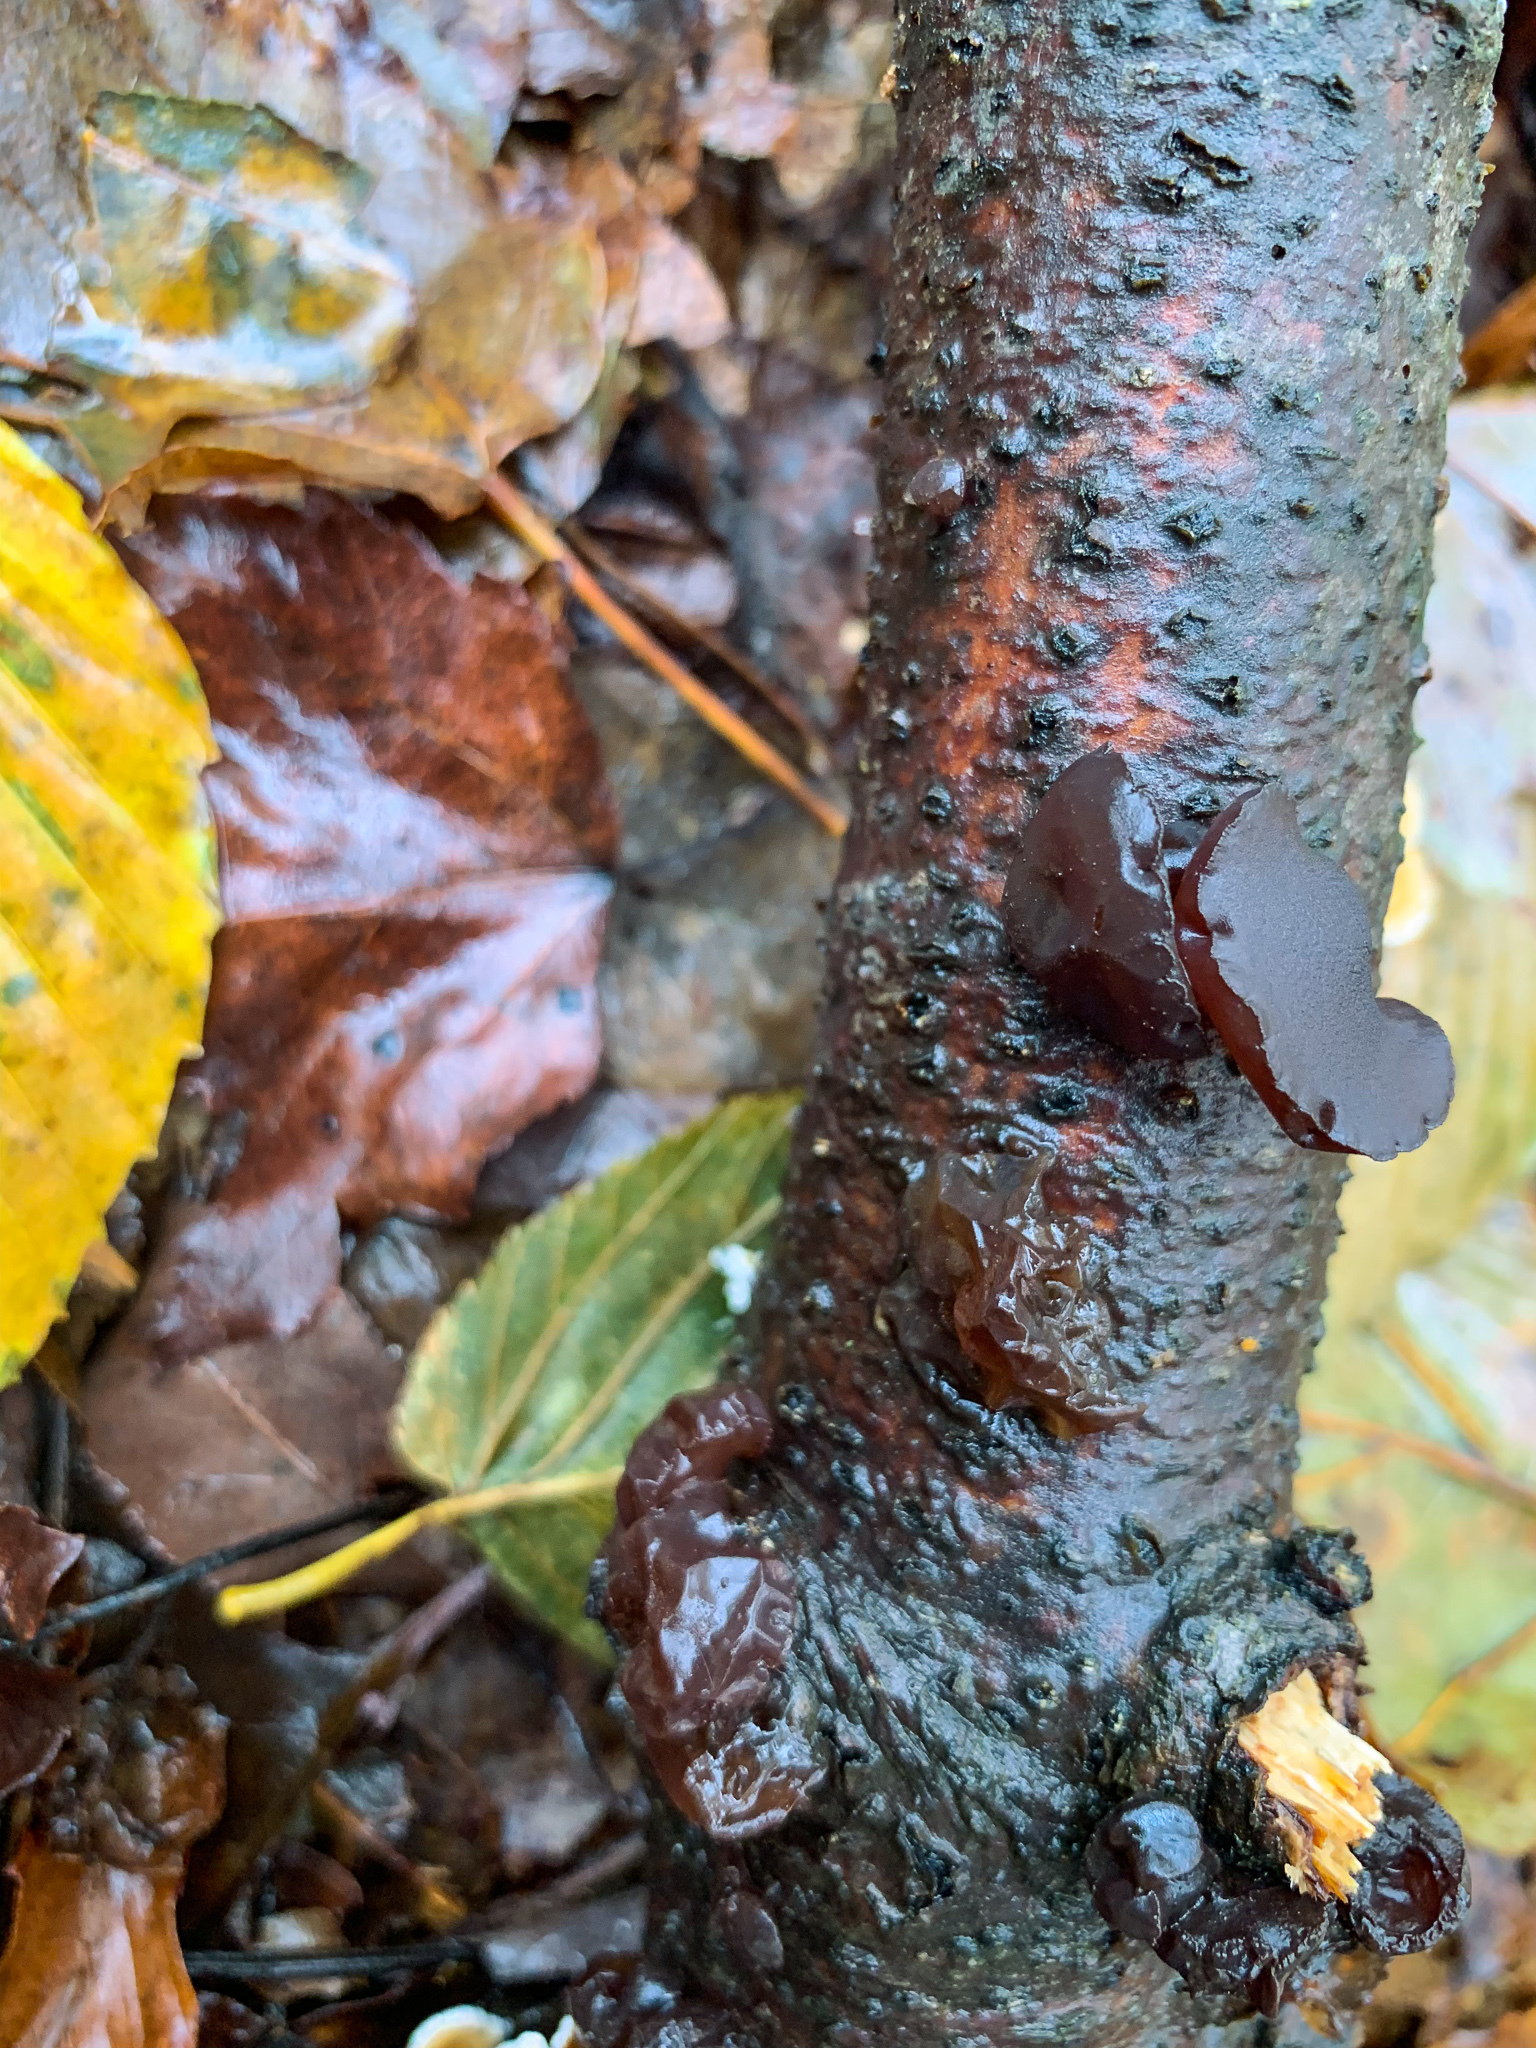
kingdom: Fungi
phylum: Basidiomycota
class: Agaricomycetes
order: Auriculariales
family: Auriculariaceae
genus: Exidia
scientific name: Exidia
